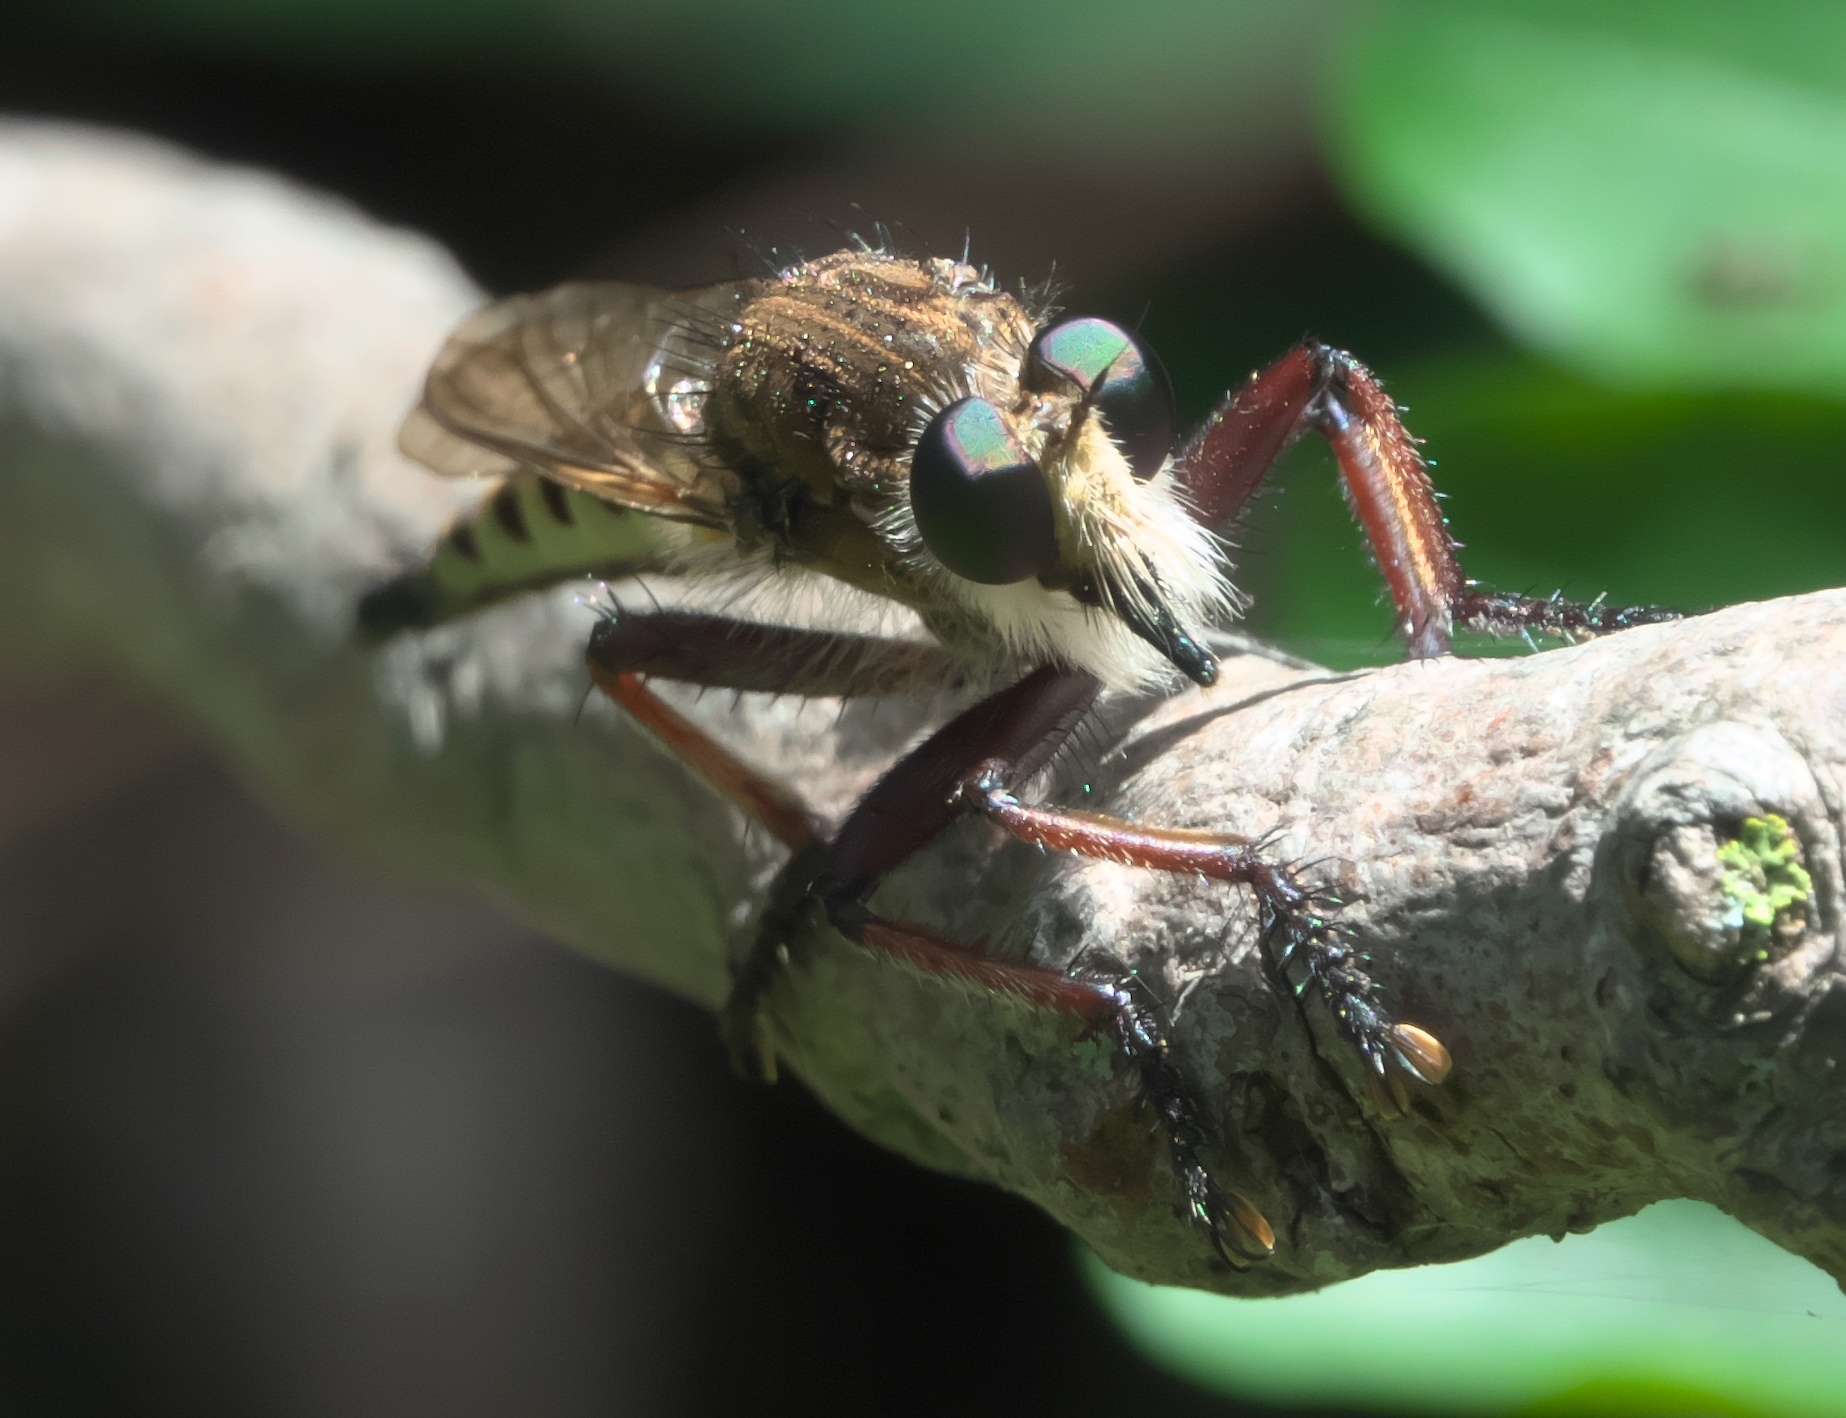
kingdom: Animalia
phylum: Arthropoda
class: Insecta
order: Diptera
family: Asilidae
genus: Promachus
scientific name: Promachus hinei
